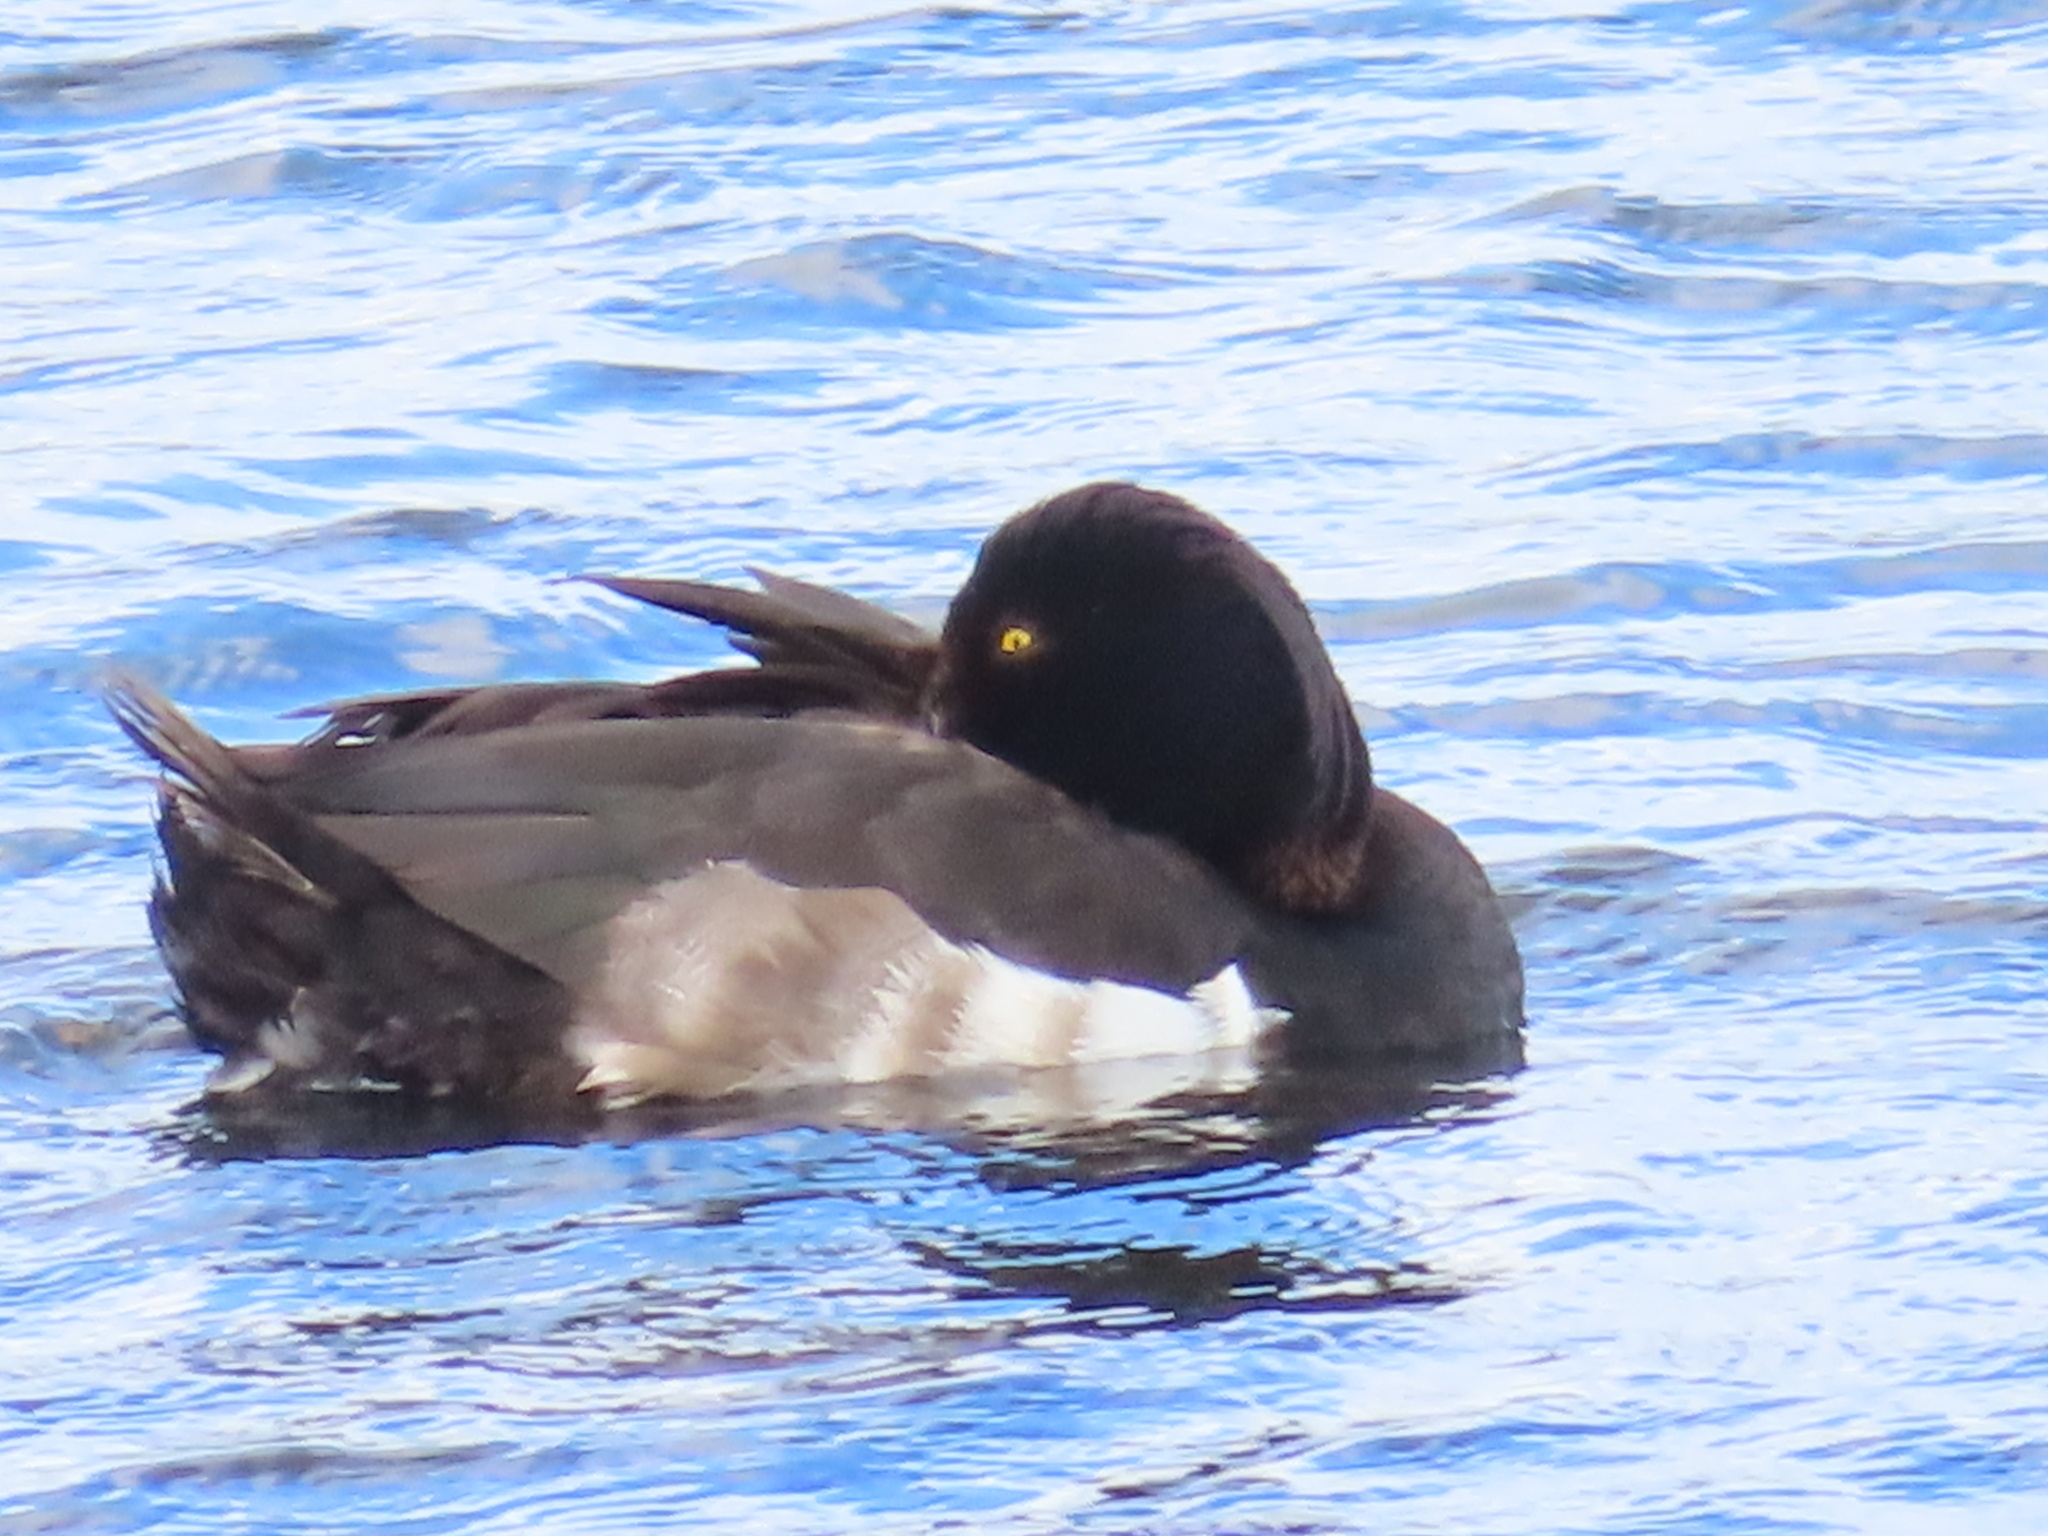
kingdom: Animalia
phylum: Chordata
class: Aves
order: Anseriformes
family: Anatidae
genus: Aythya
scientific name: Aythya fuligula
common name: Tufted duck
